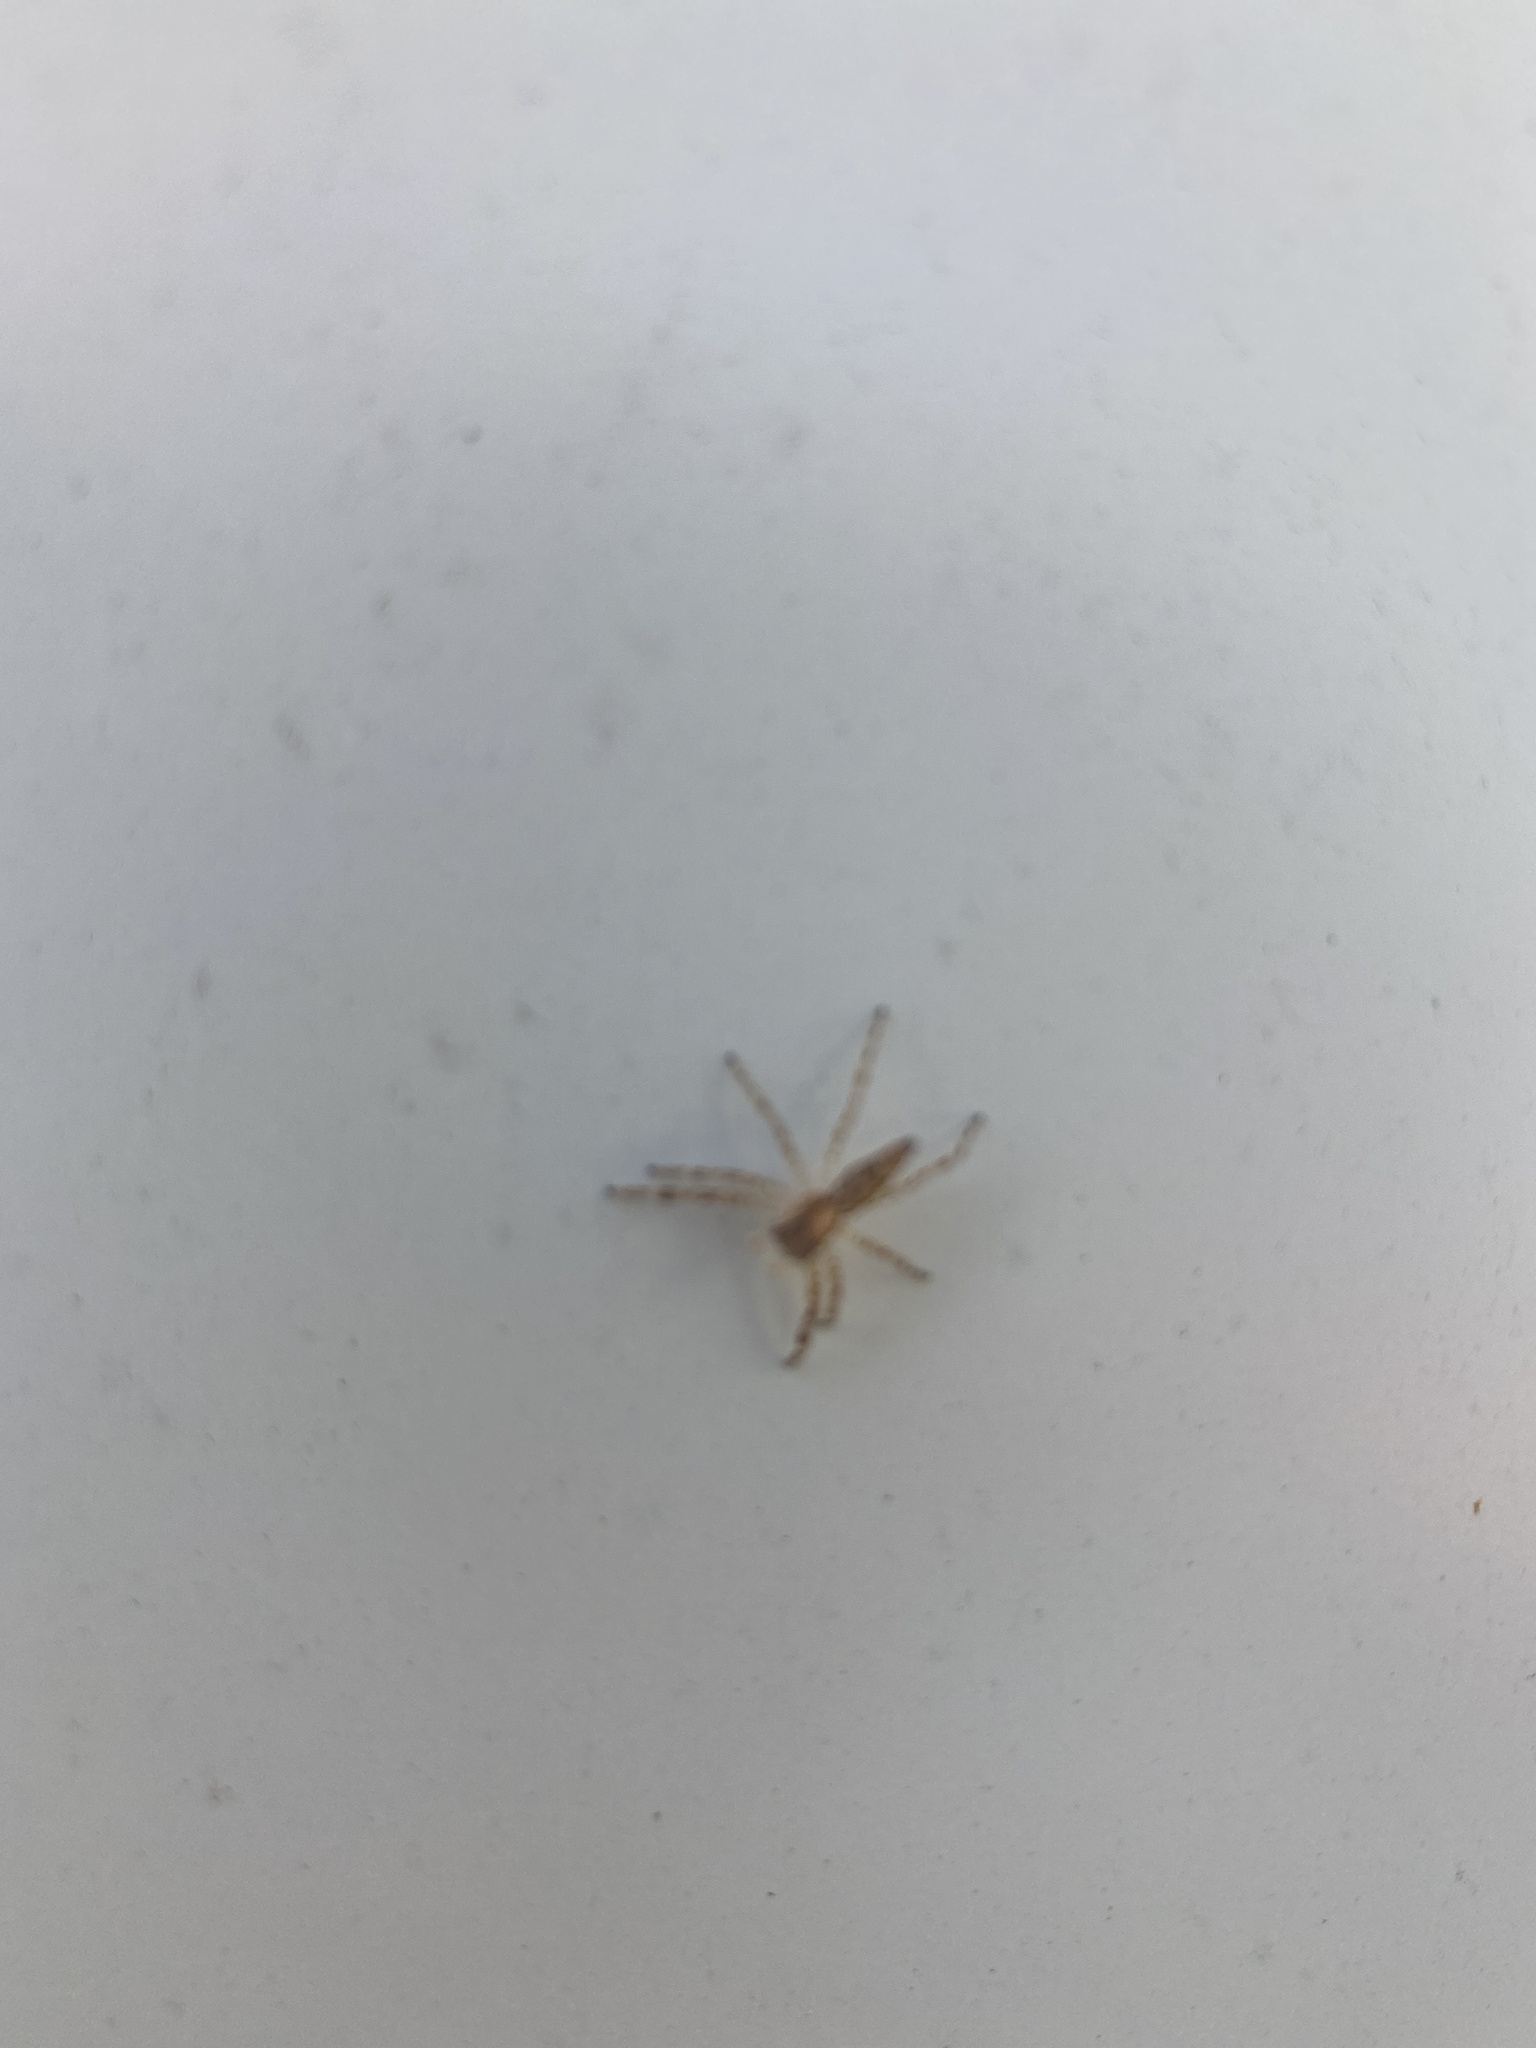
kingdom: Animalia
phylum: Arthropoda
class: Arachnida
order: Araneae
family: Salticidae
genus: Helpis
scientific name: Helpis minitabunda
